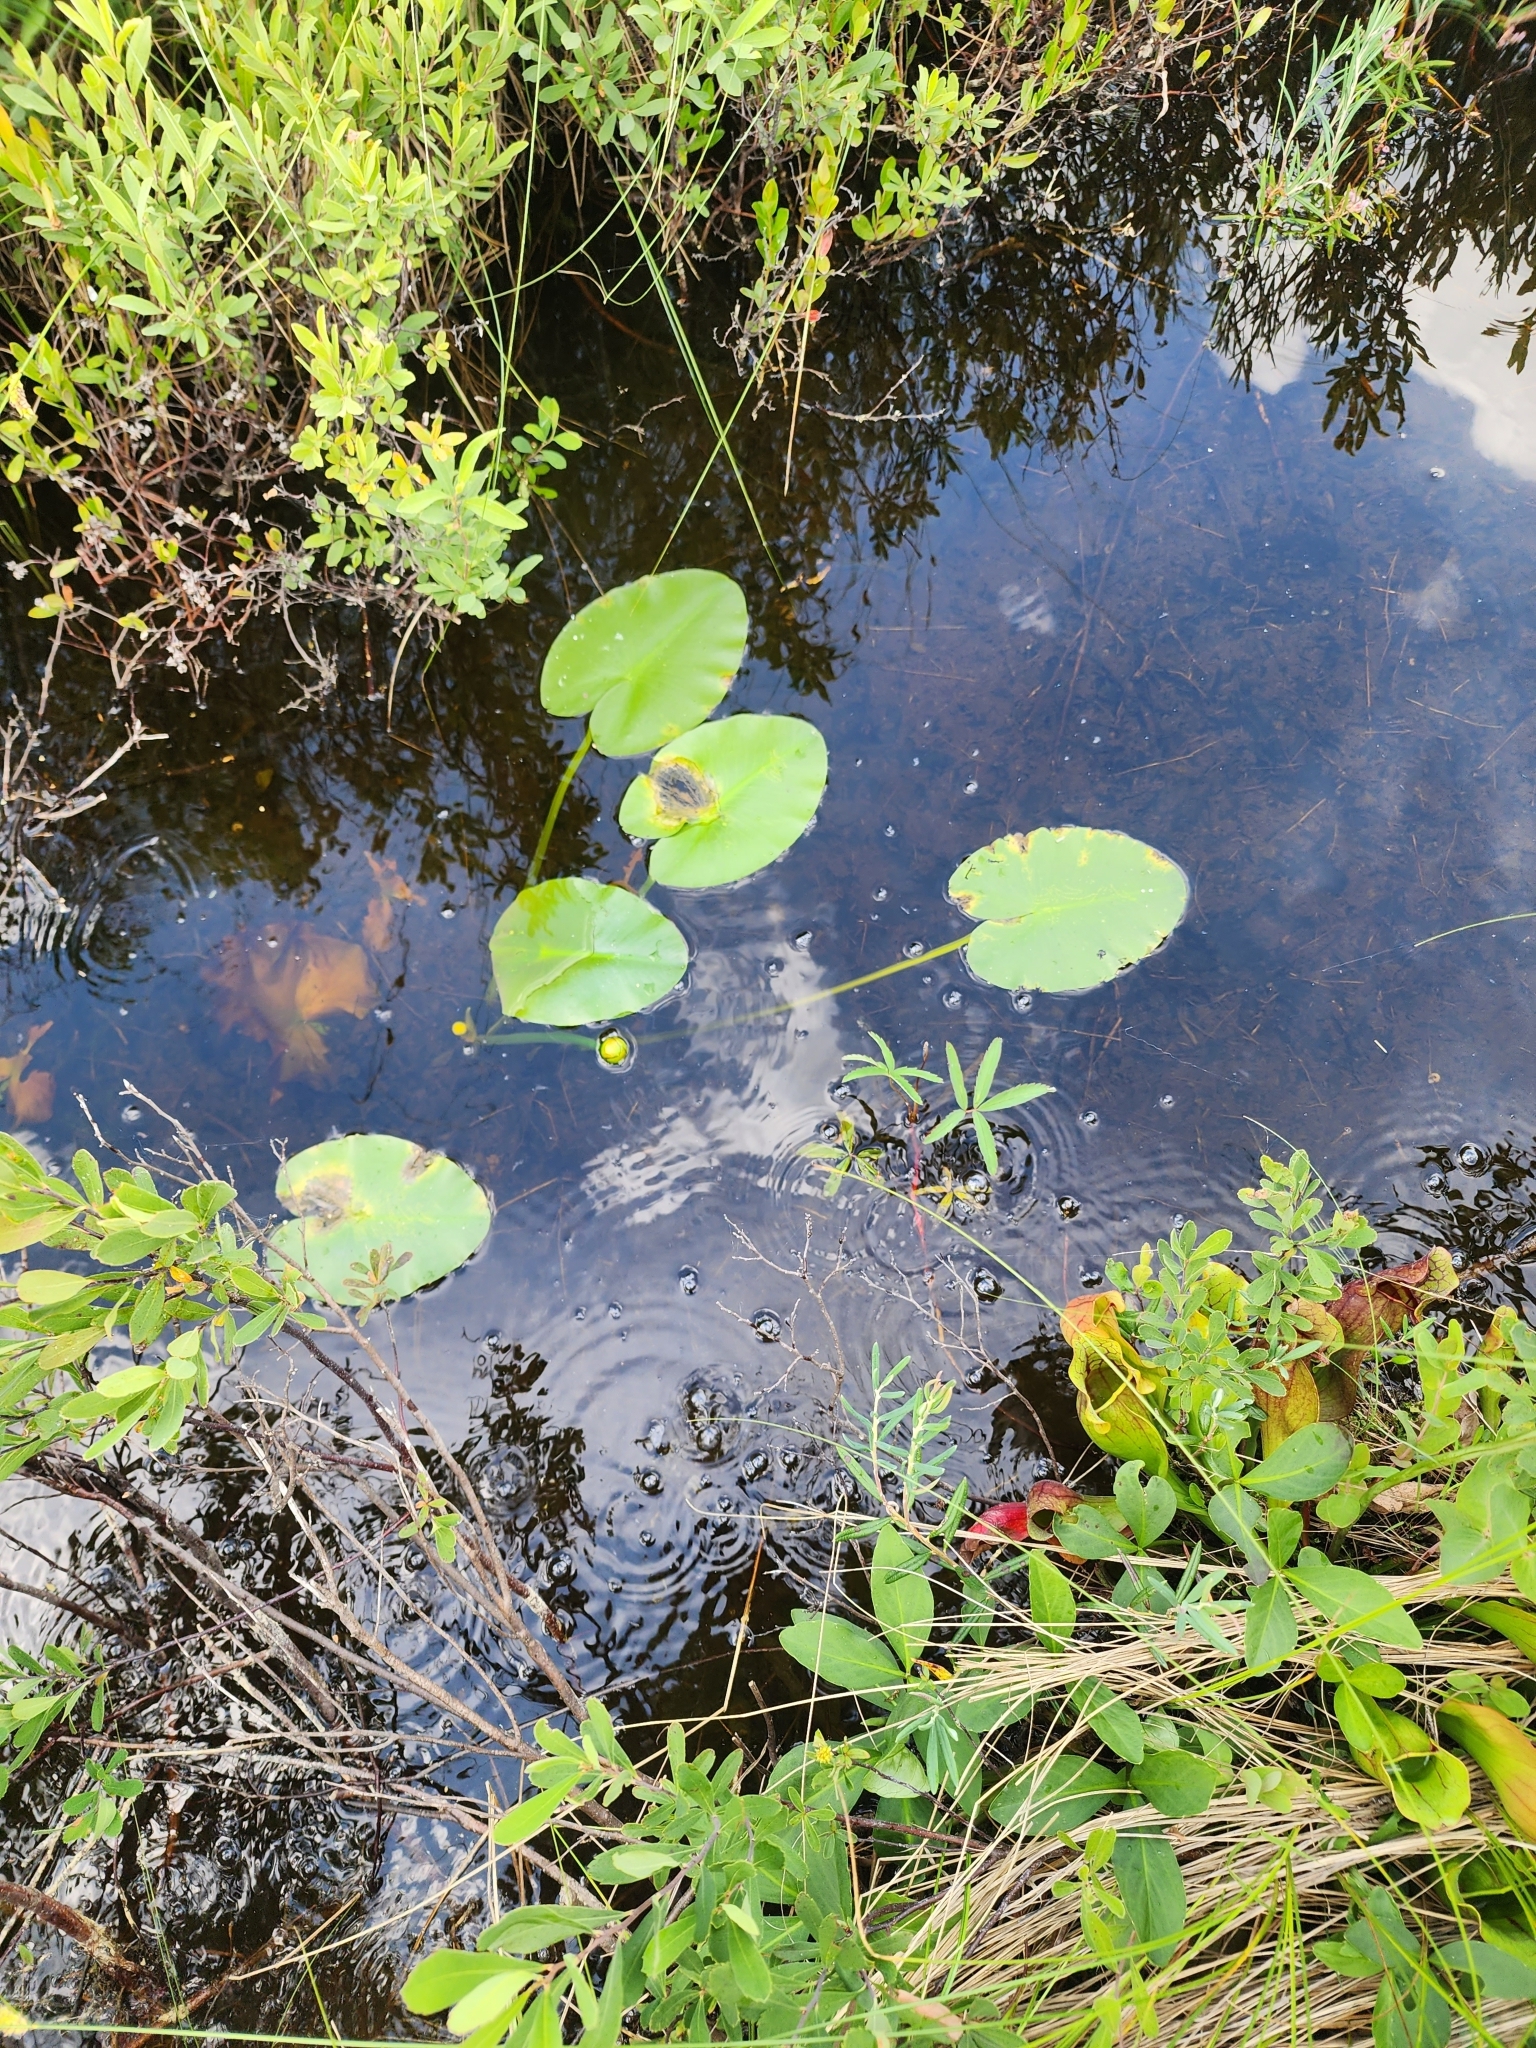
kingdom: Plantae
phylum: Tracheophyta
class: Magnoliopsida
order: Nymphaeales
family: Nymphaeaceae
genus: Nuphar
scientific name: Nuphar variegata
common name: Beaver-root
